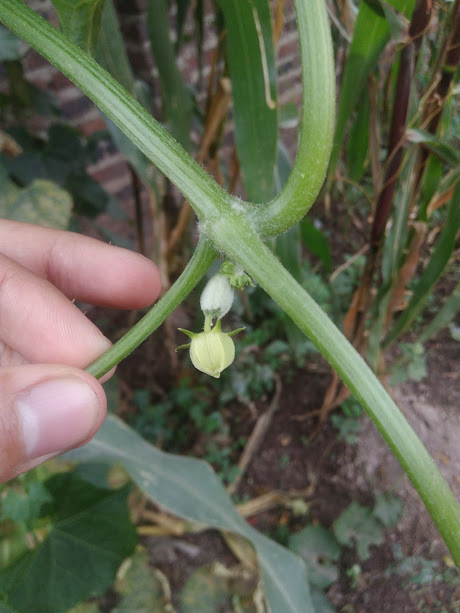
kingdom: Plantae
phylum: Tracheophyta
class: Magnoliopsida
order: Cucurbitales
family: Cucurbitaceae
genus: Sechium
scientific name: Sechium edule
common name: Chayote
